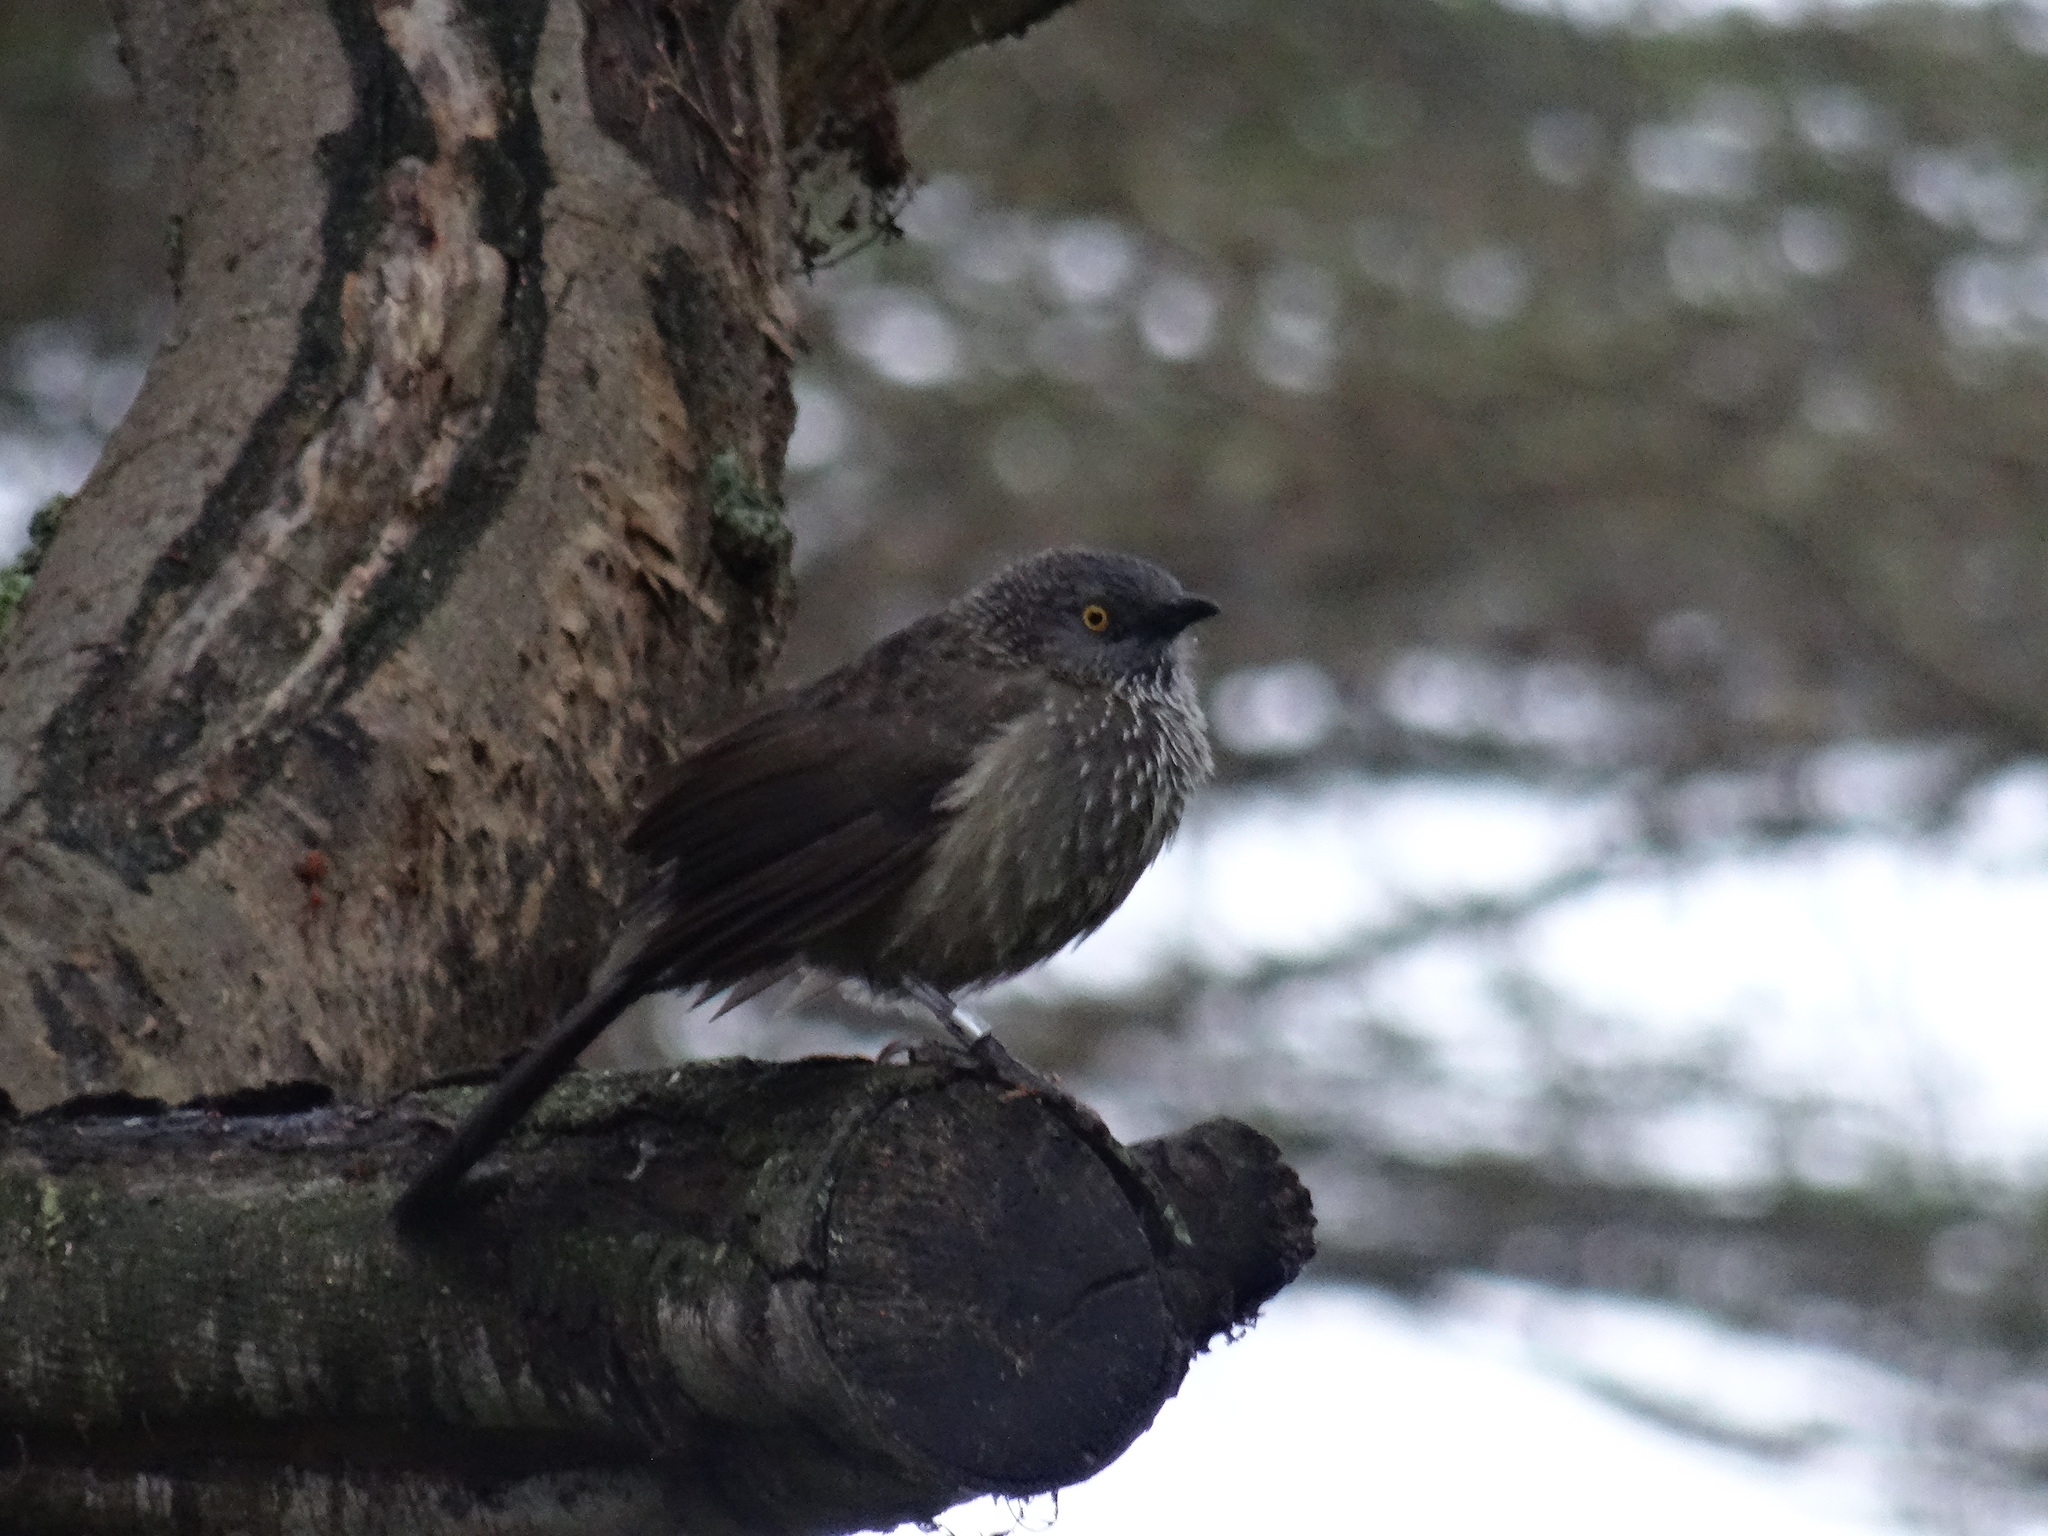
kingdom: Animalia
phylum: Chordata
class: Aves
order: Passeriformes
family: Leiothrichidae
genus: Turdoides
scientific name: Turdoides jardineii
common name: Arrow-marked babbler
